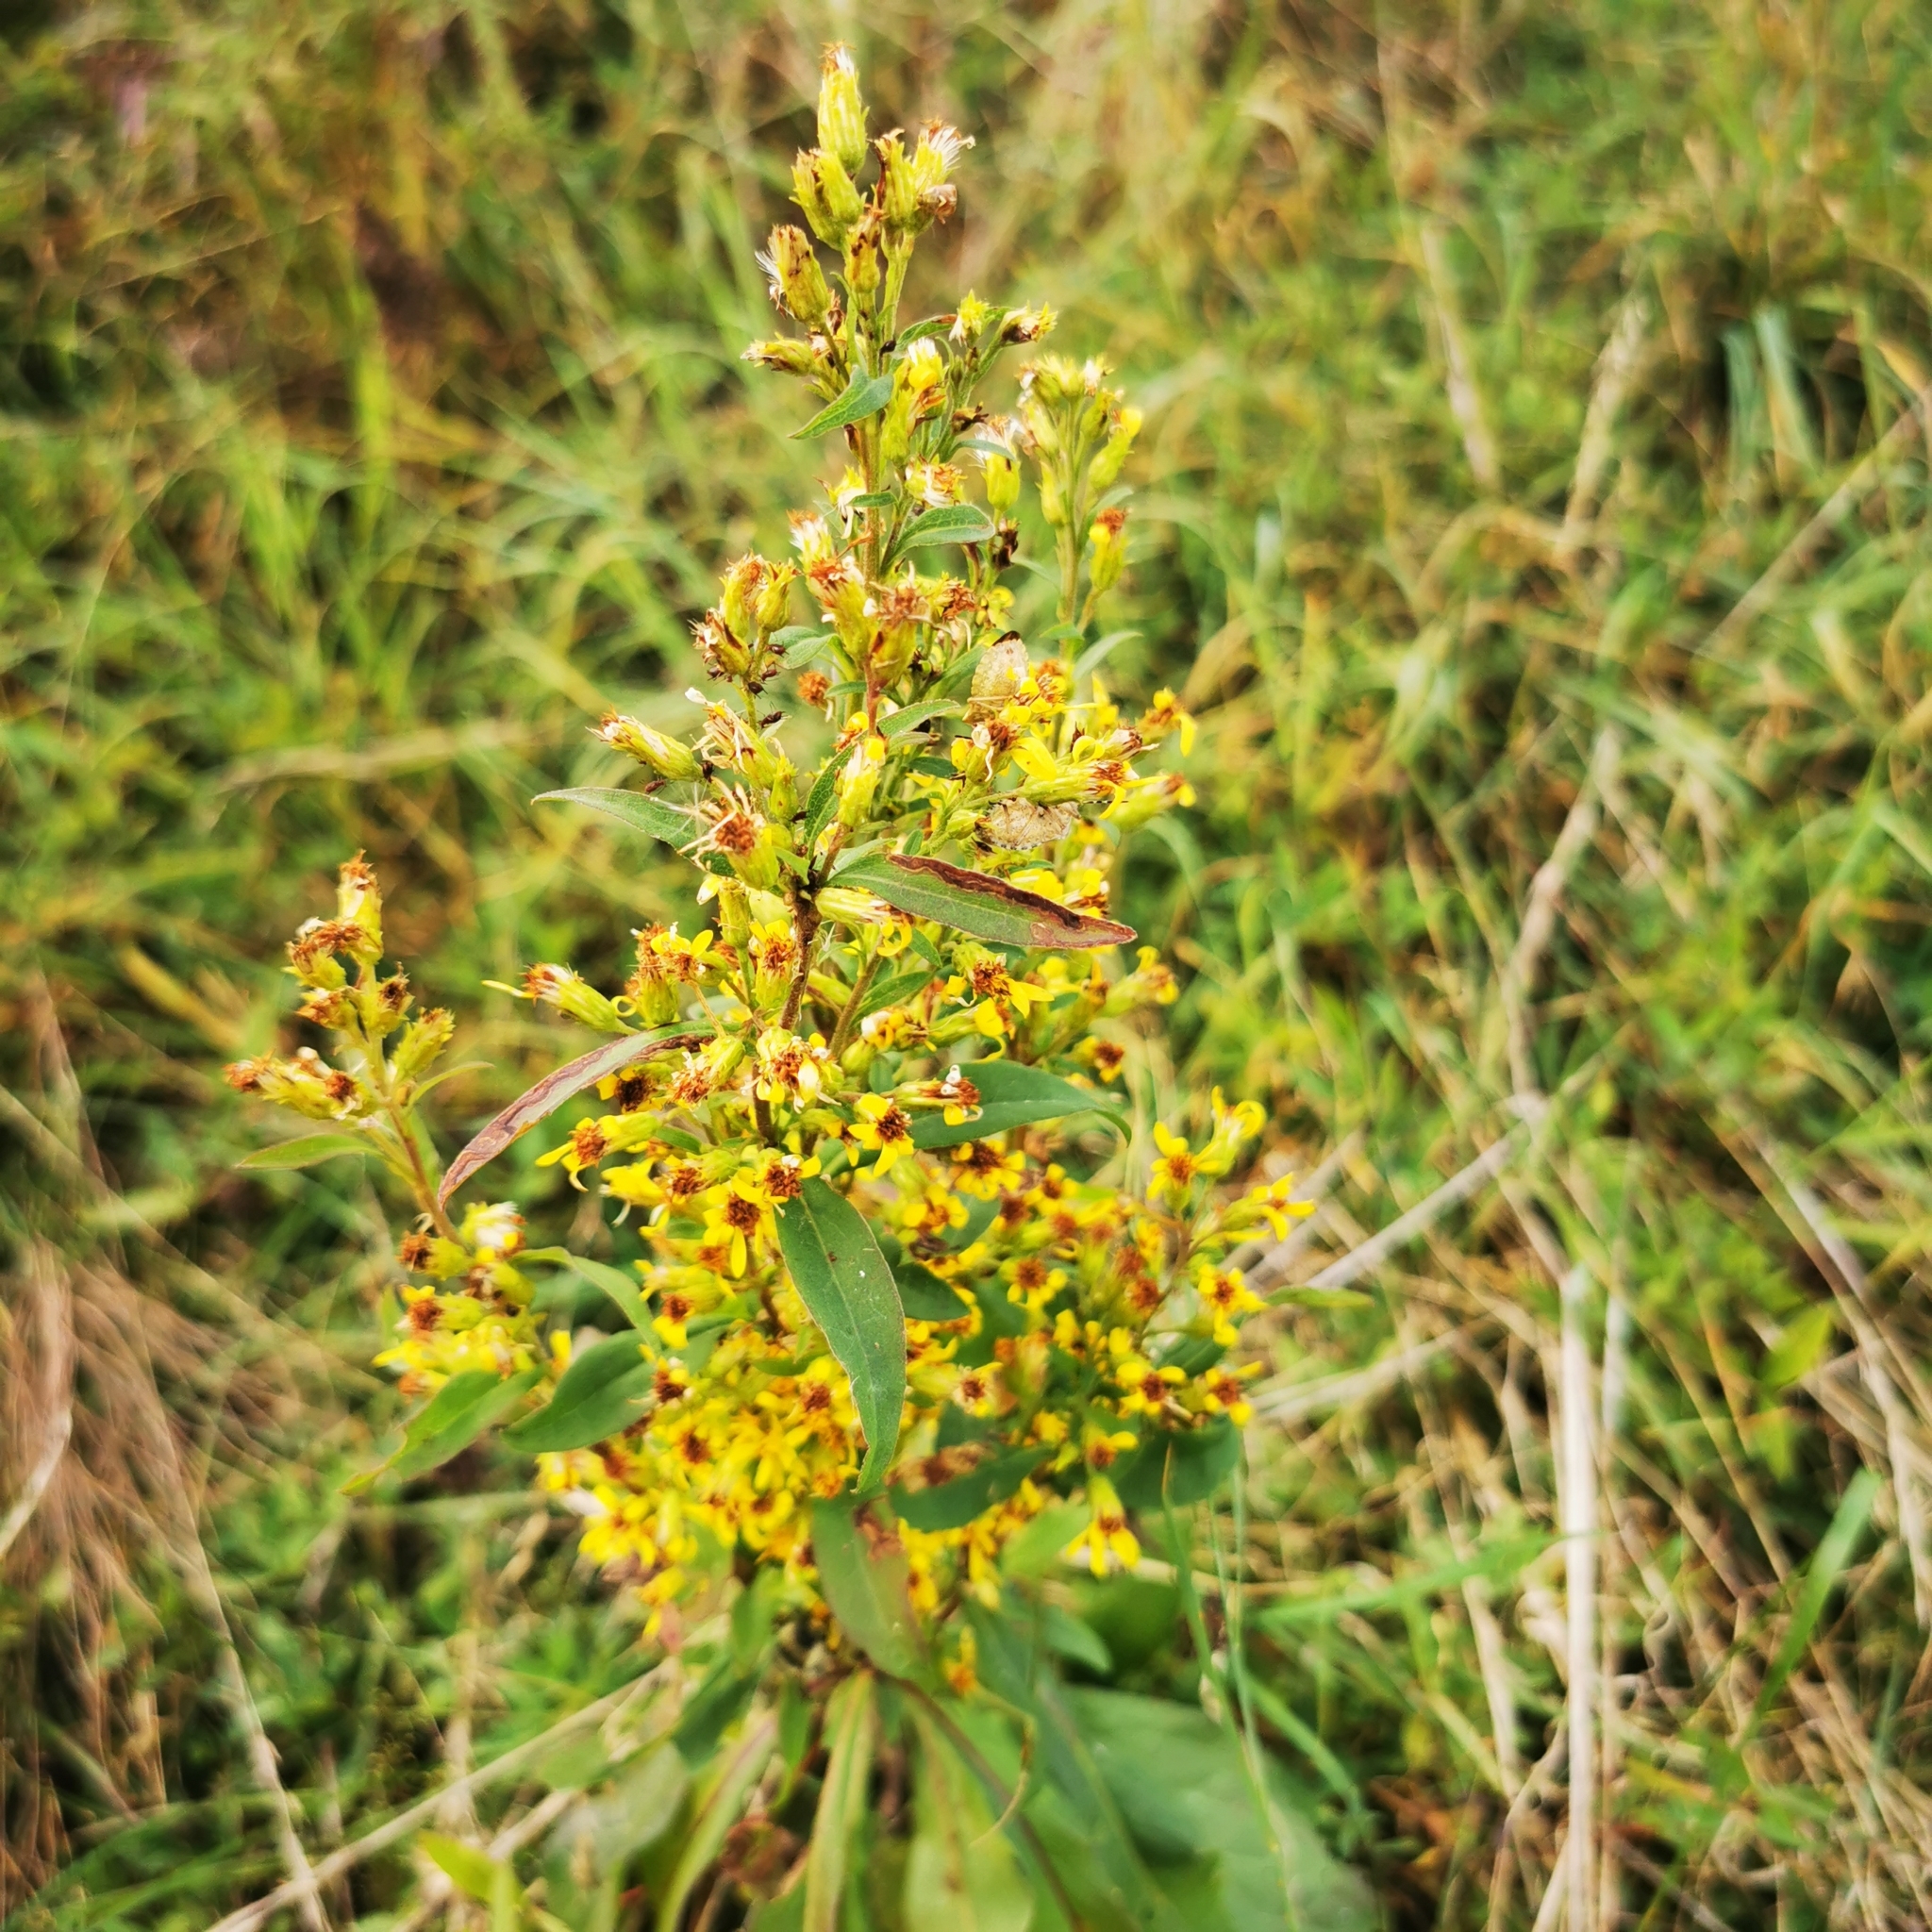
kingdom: Plantae
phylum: Tracheophyta
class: Magnoliopsida
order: Asterales
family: Asteraceae
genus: Solidago
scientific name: Solidago virgaurea
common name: Goldenrod
